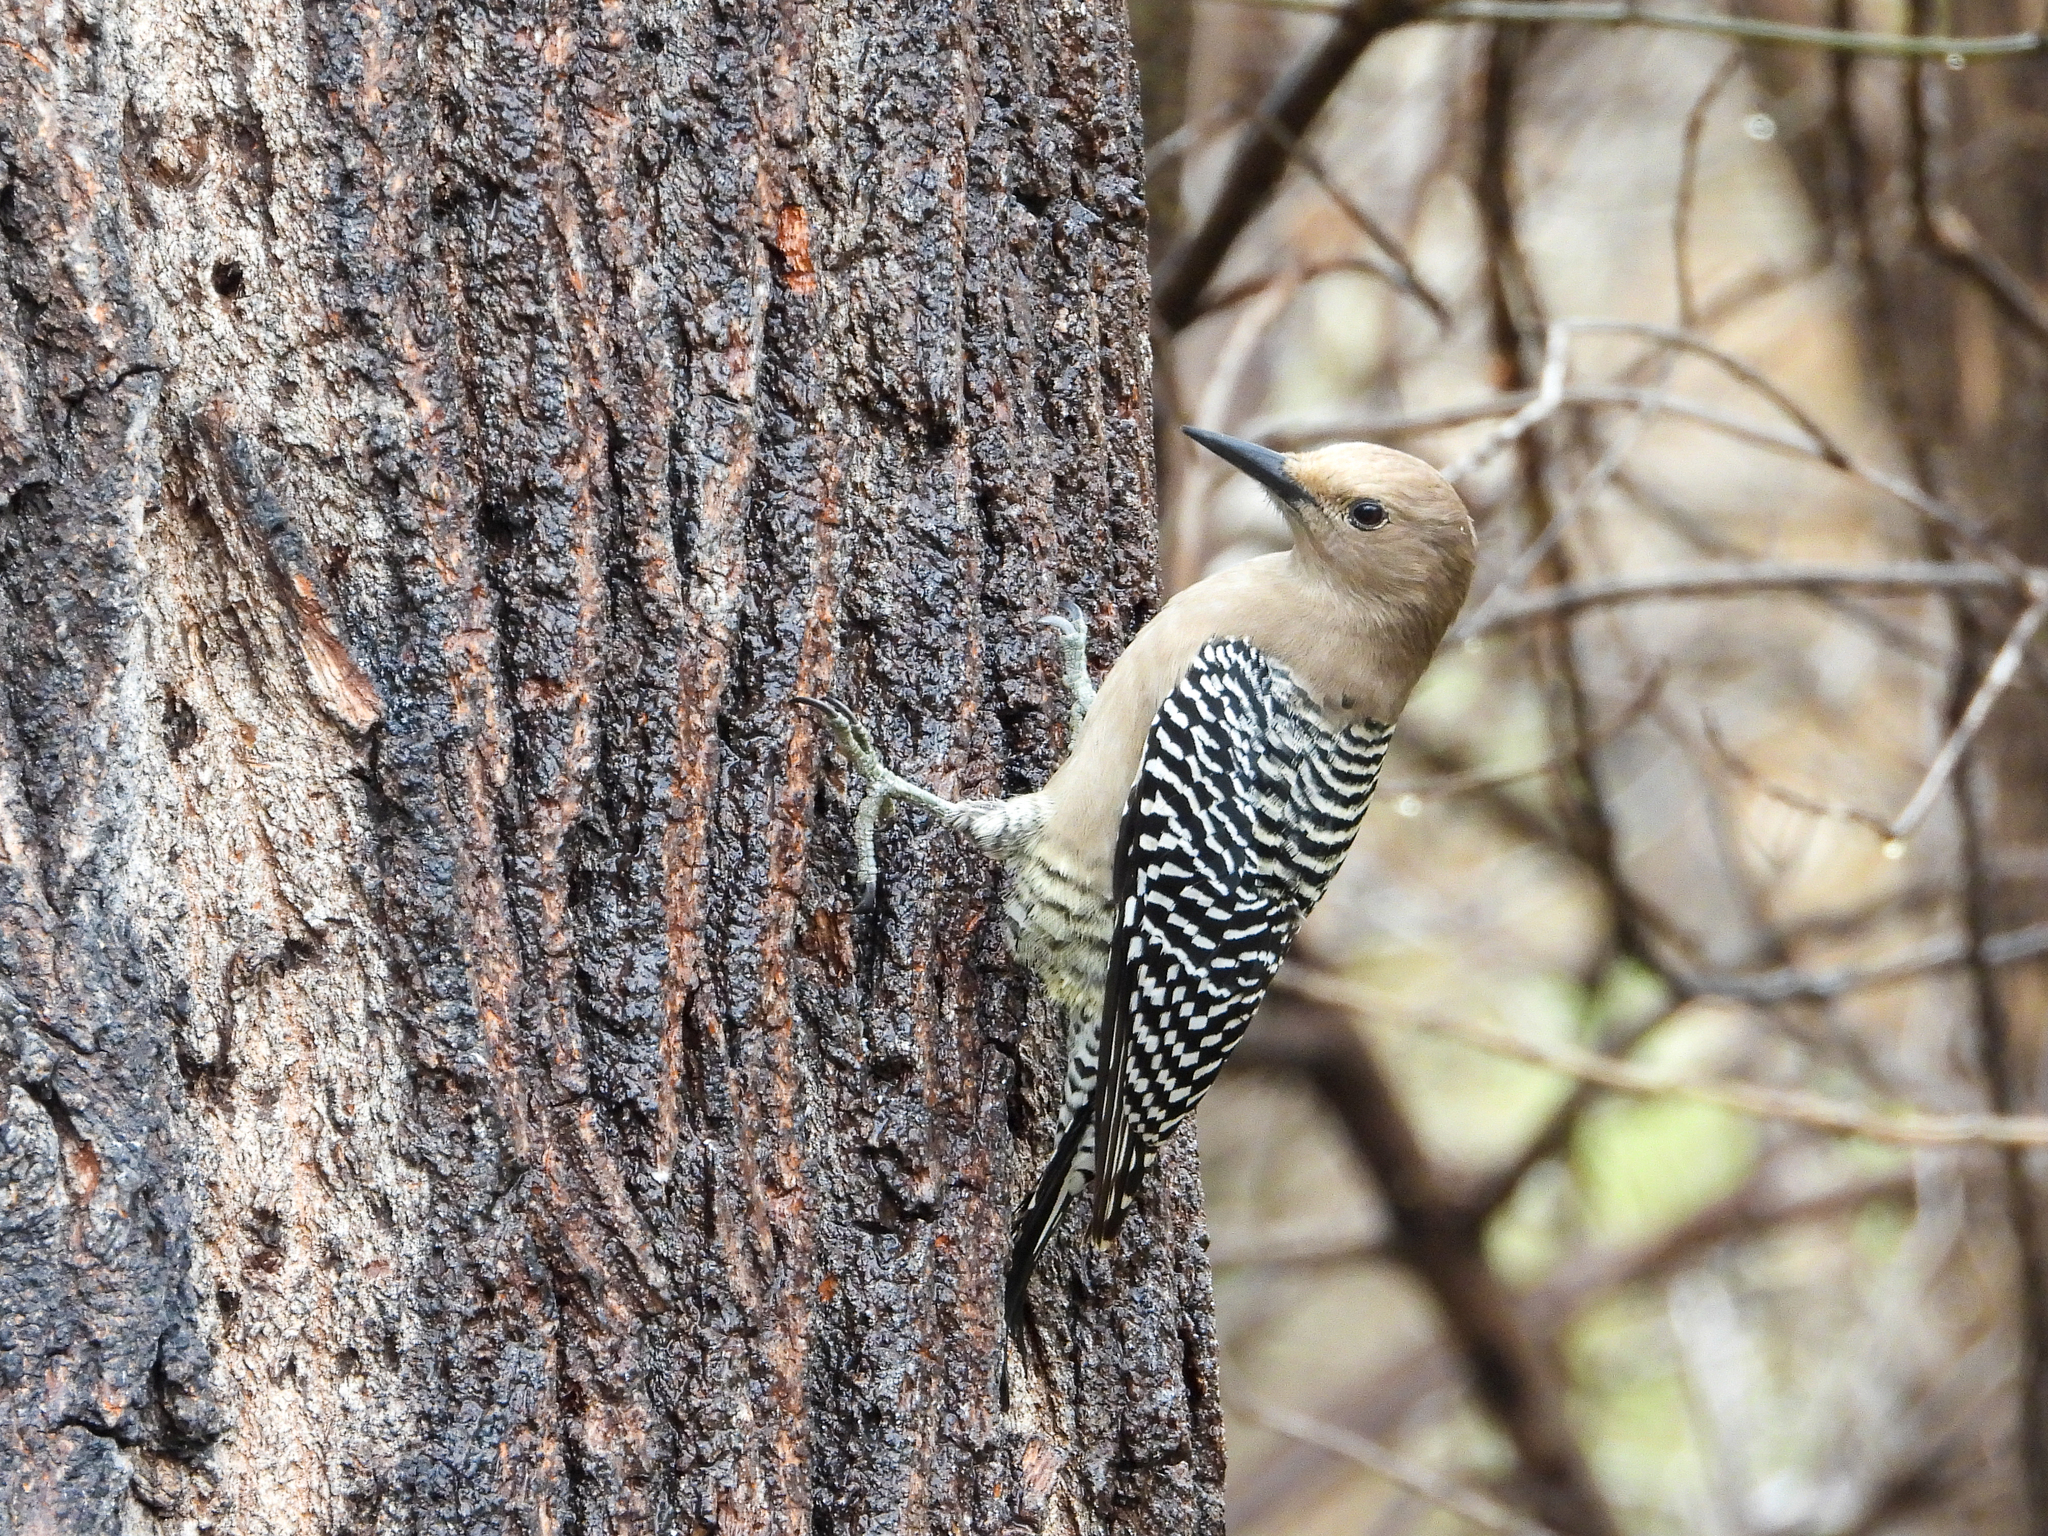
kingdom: Animalia
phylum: Chordata
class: Aves
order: Piciformes
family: Picidae
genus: Melanerpes
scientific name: Melanerpes uropygialis
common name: Gila woodpecker
